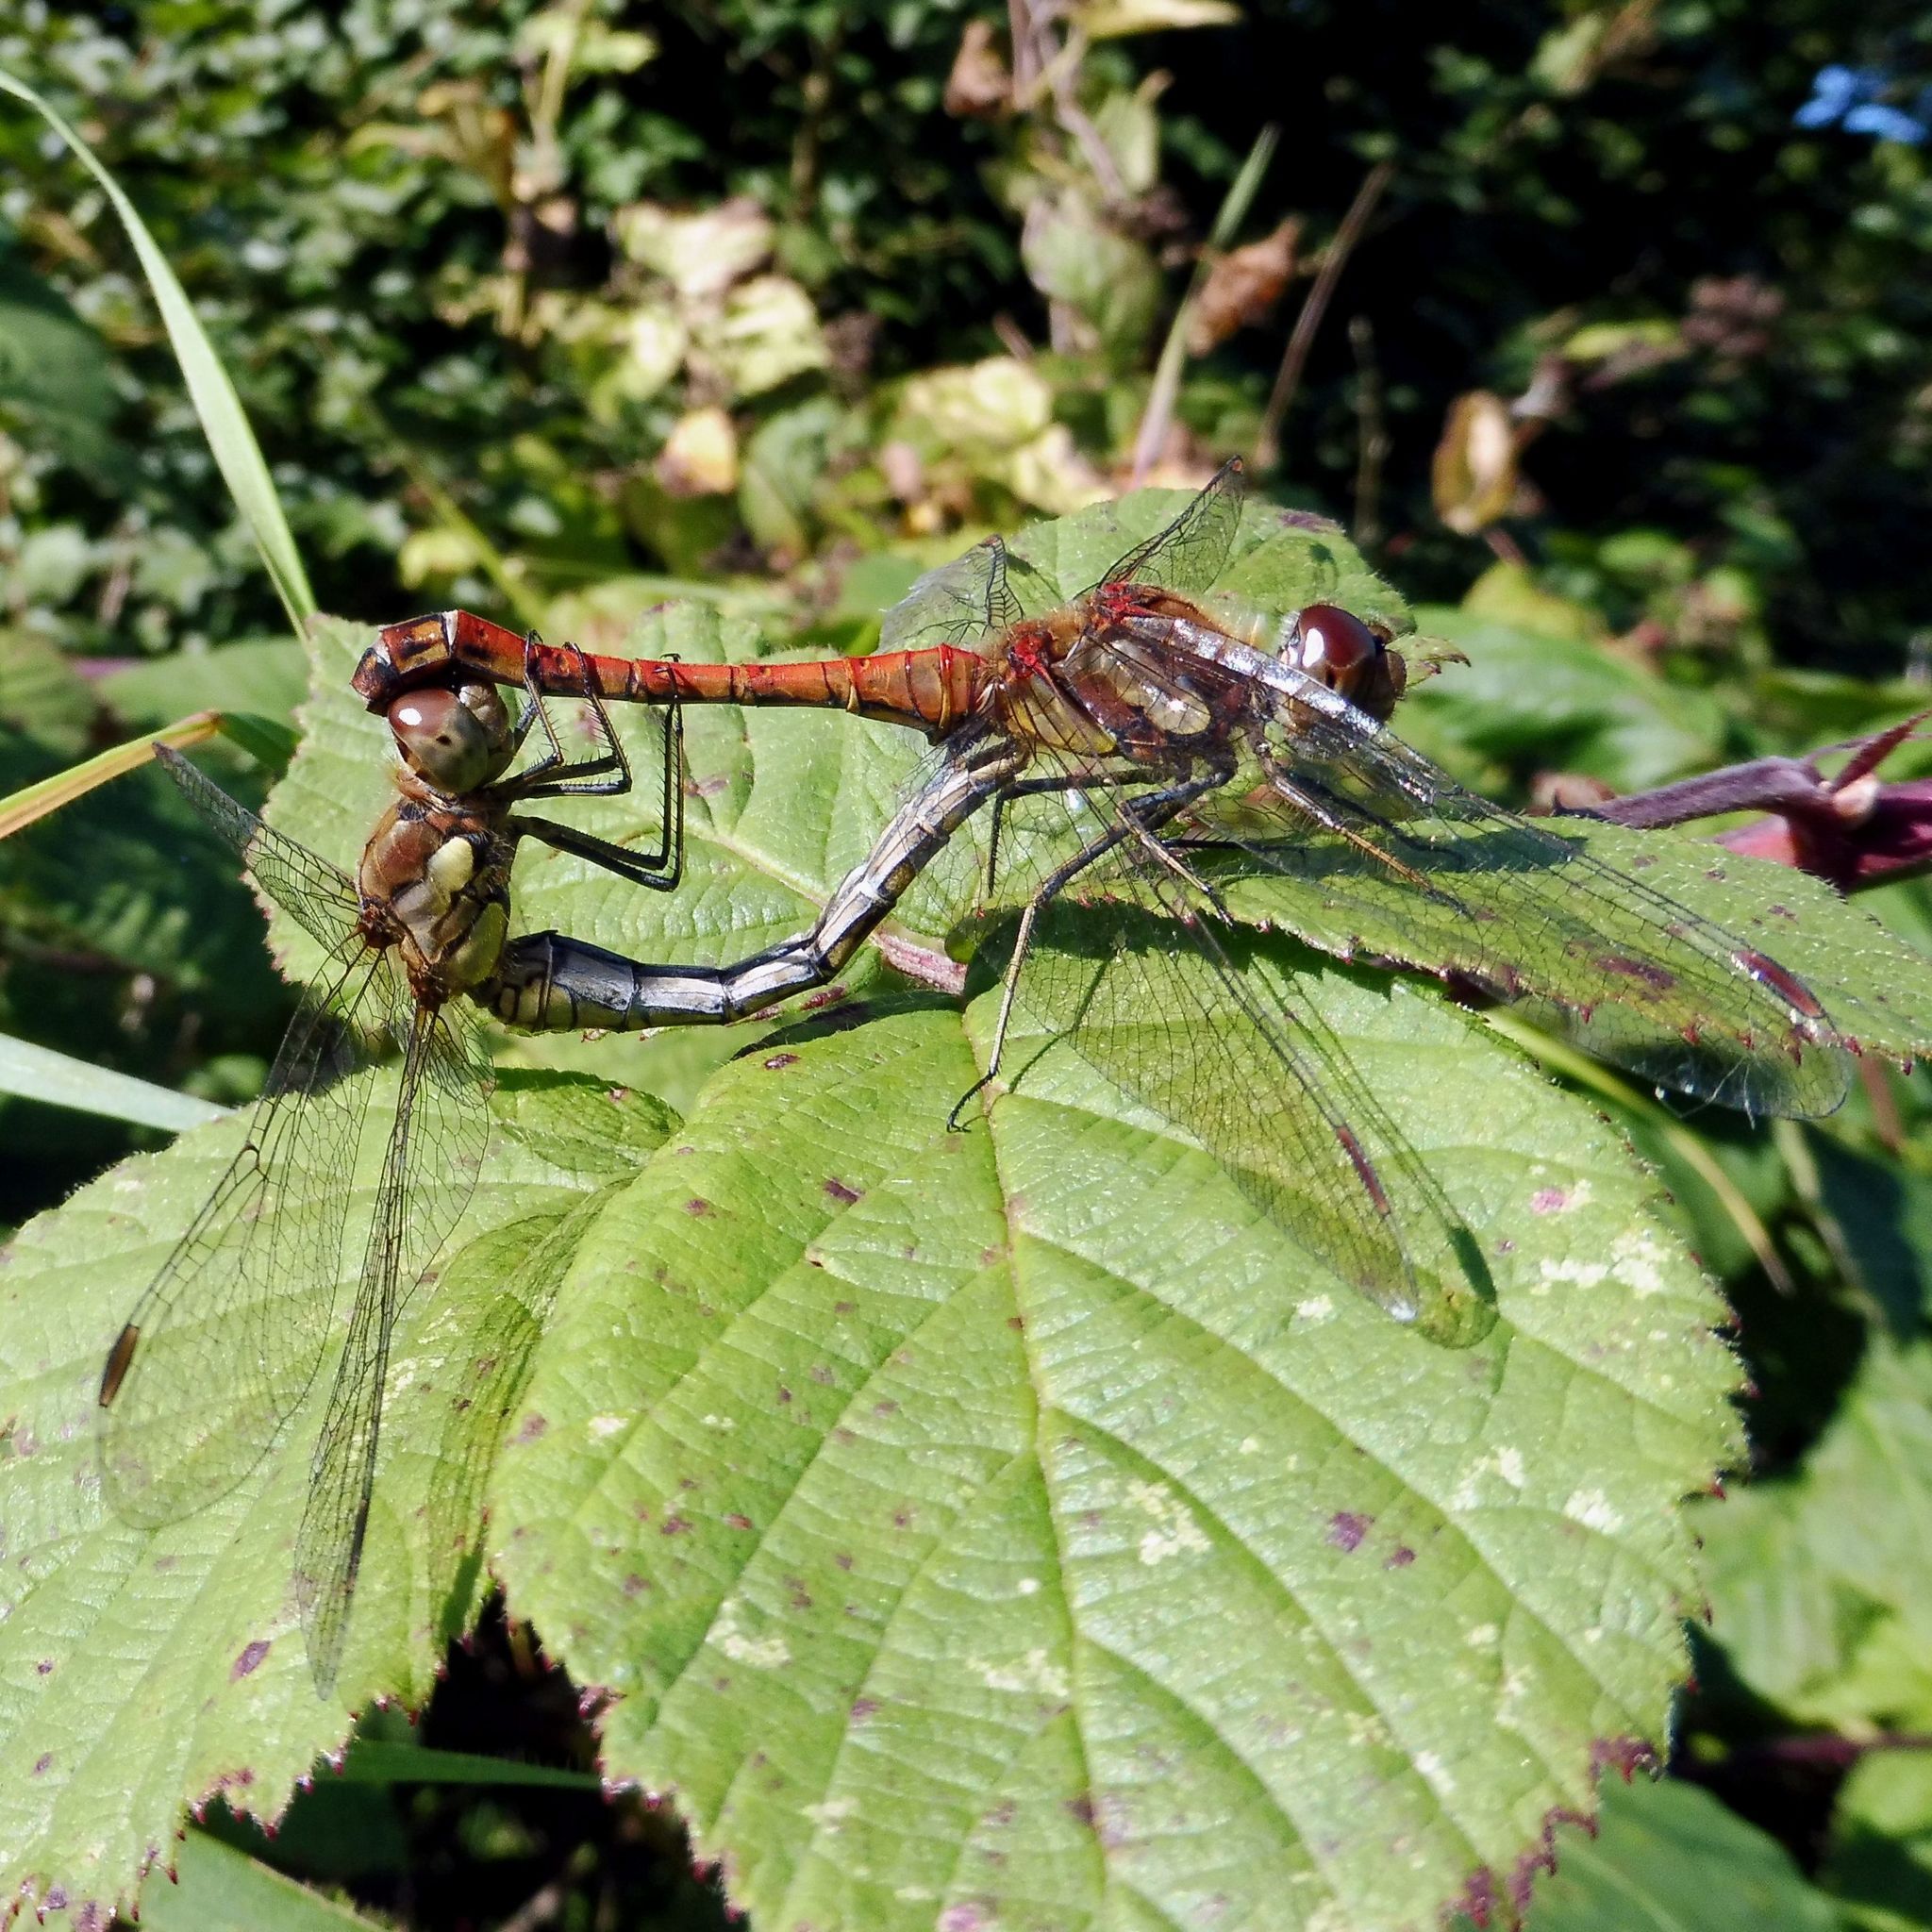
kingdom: Animalia
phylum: Arthropoda
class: Insecta
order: Odonata
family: Libellulidae
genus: Sympetrum
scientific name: Sympetrum striolatum
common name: Common darter
